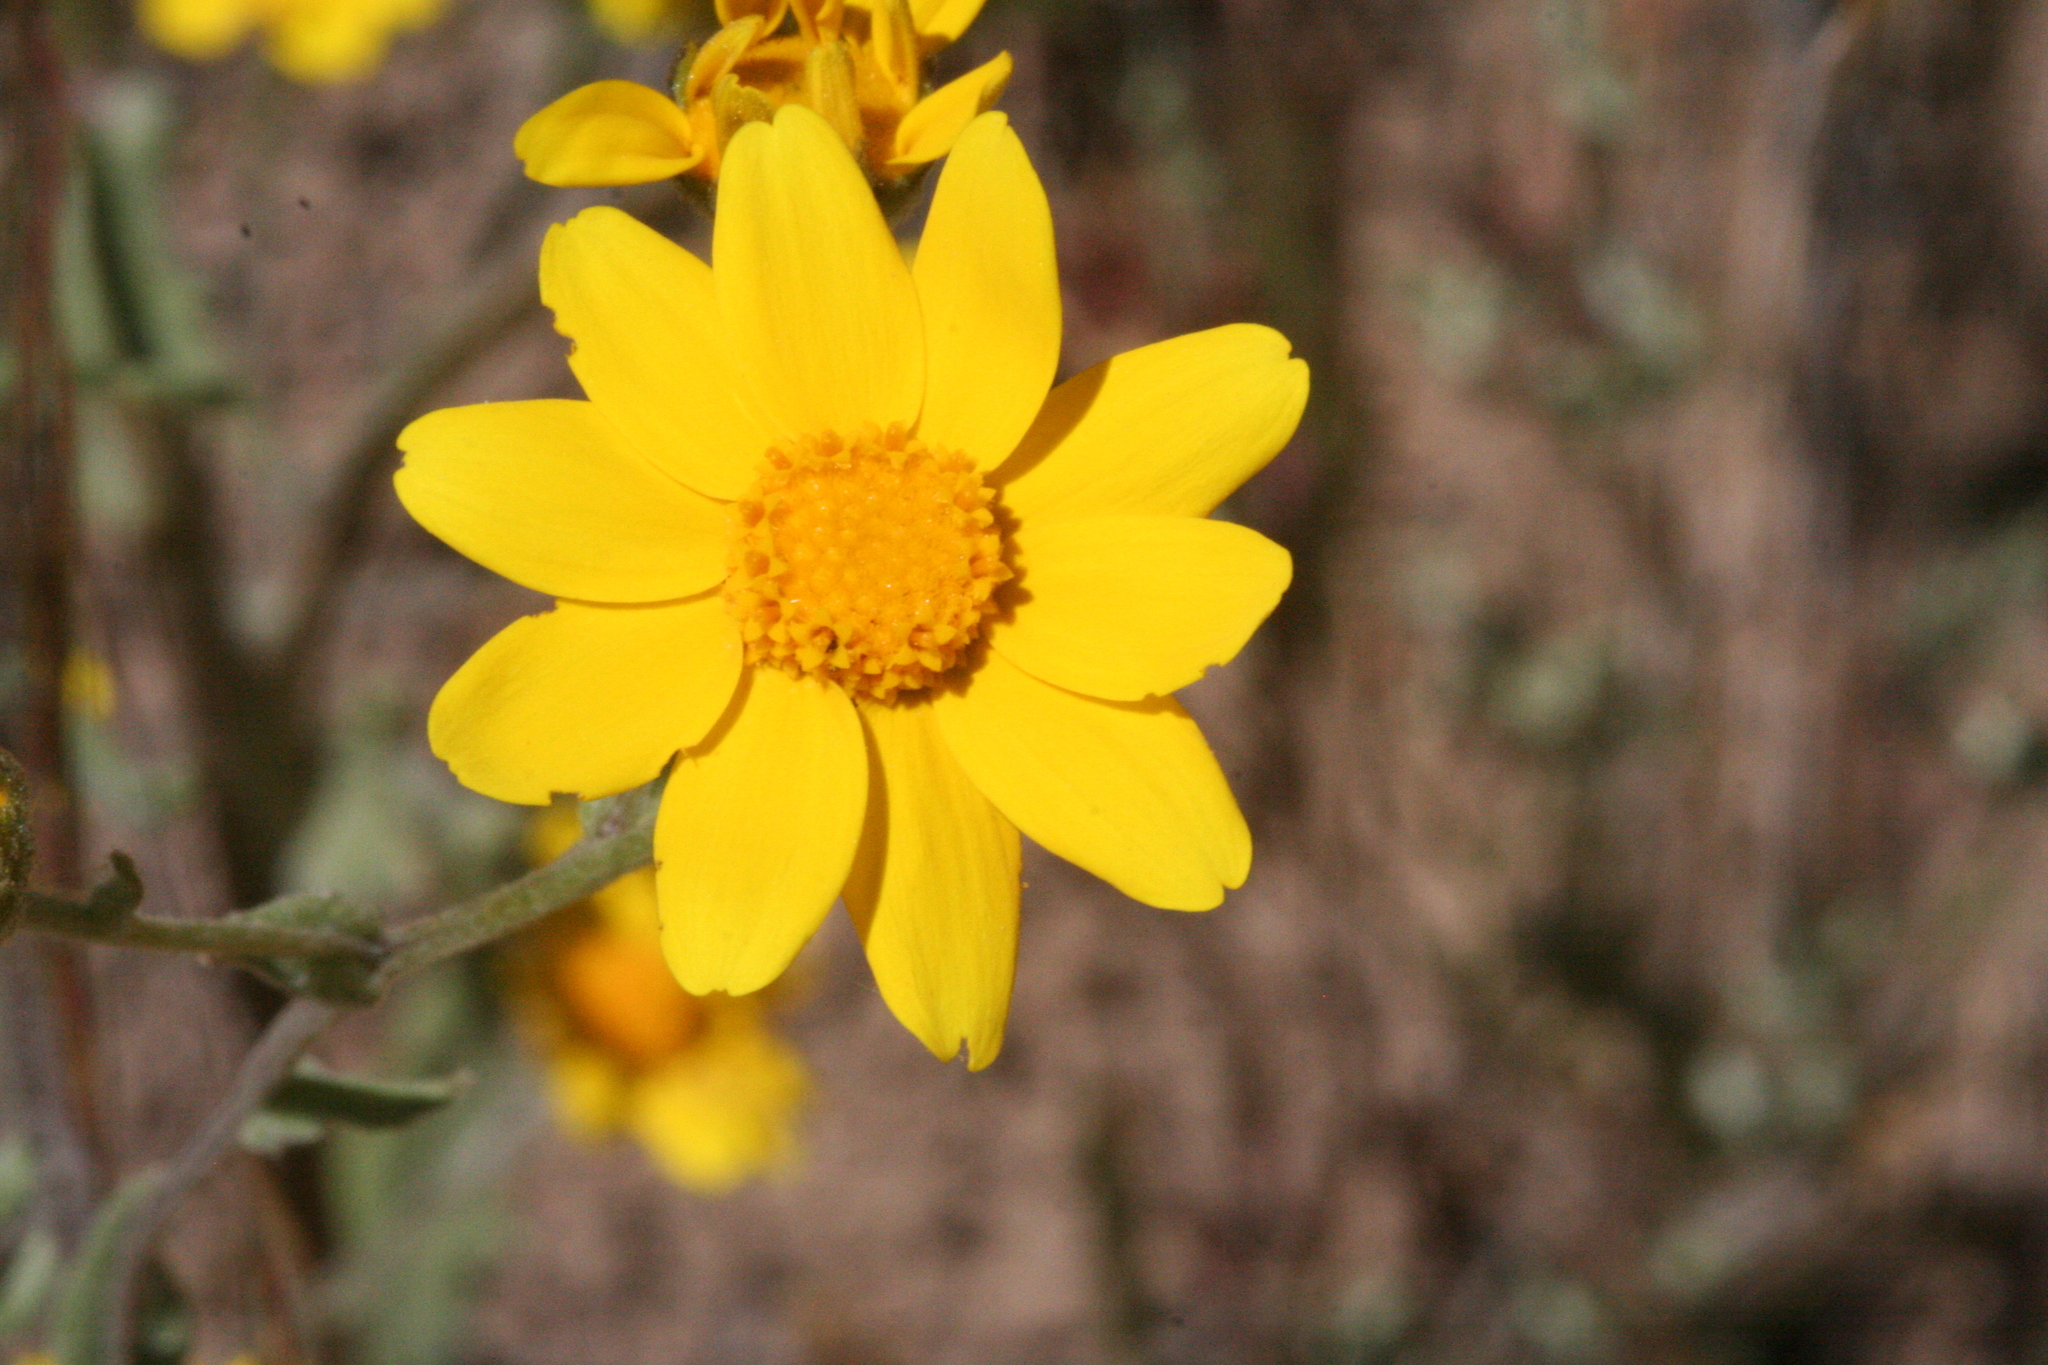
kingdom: Plantae
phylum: Tracheophyta
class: Magnoliopsida
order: Asterales
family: Asteraceae
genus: Monolopia
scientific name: Monolopia gracilens
